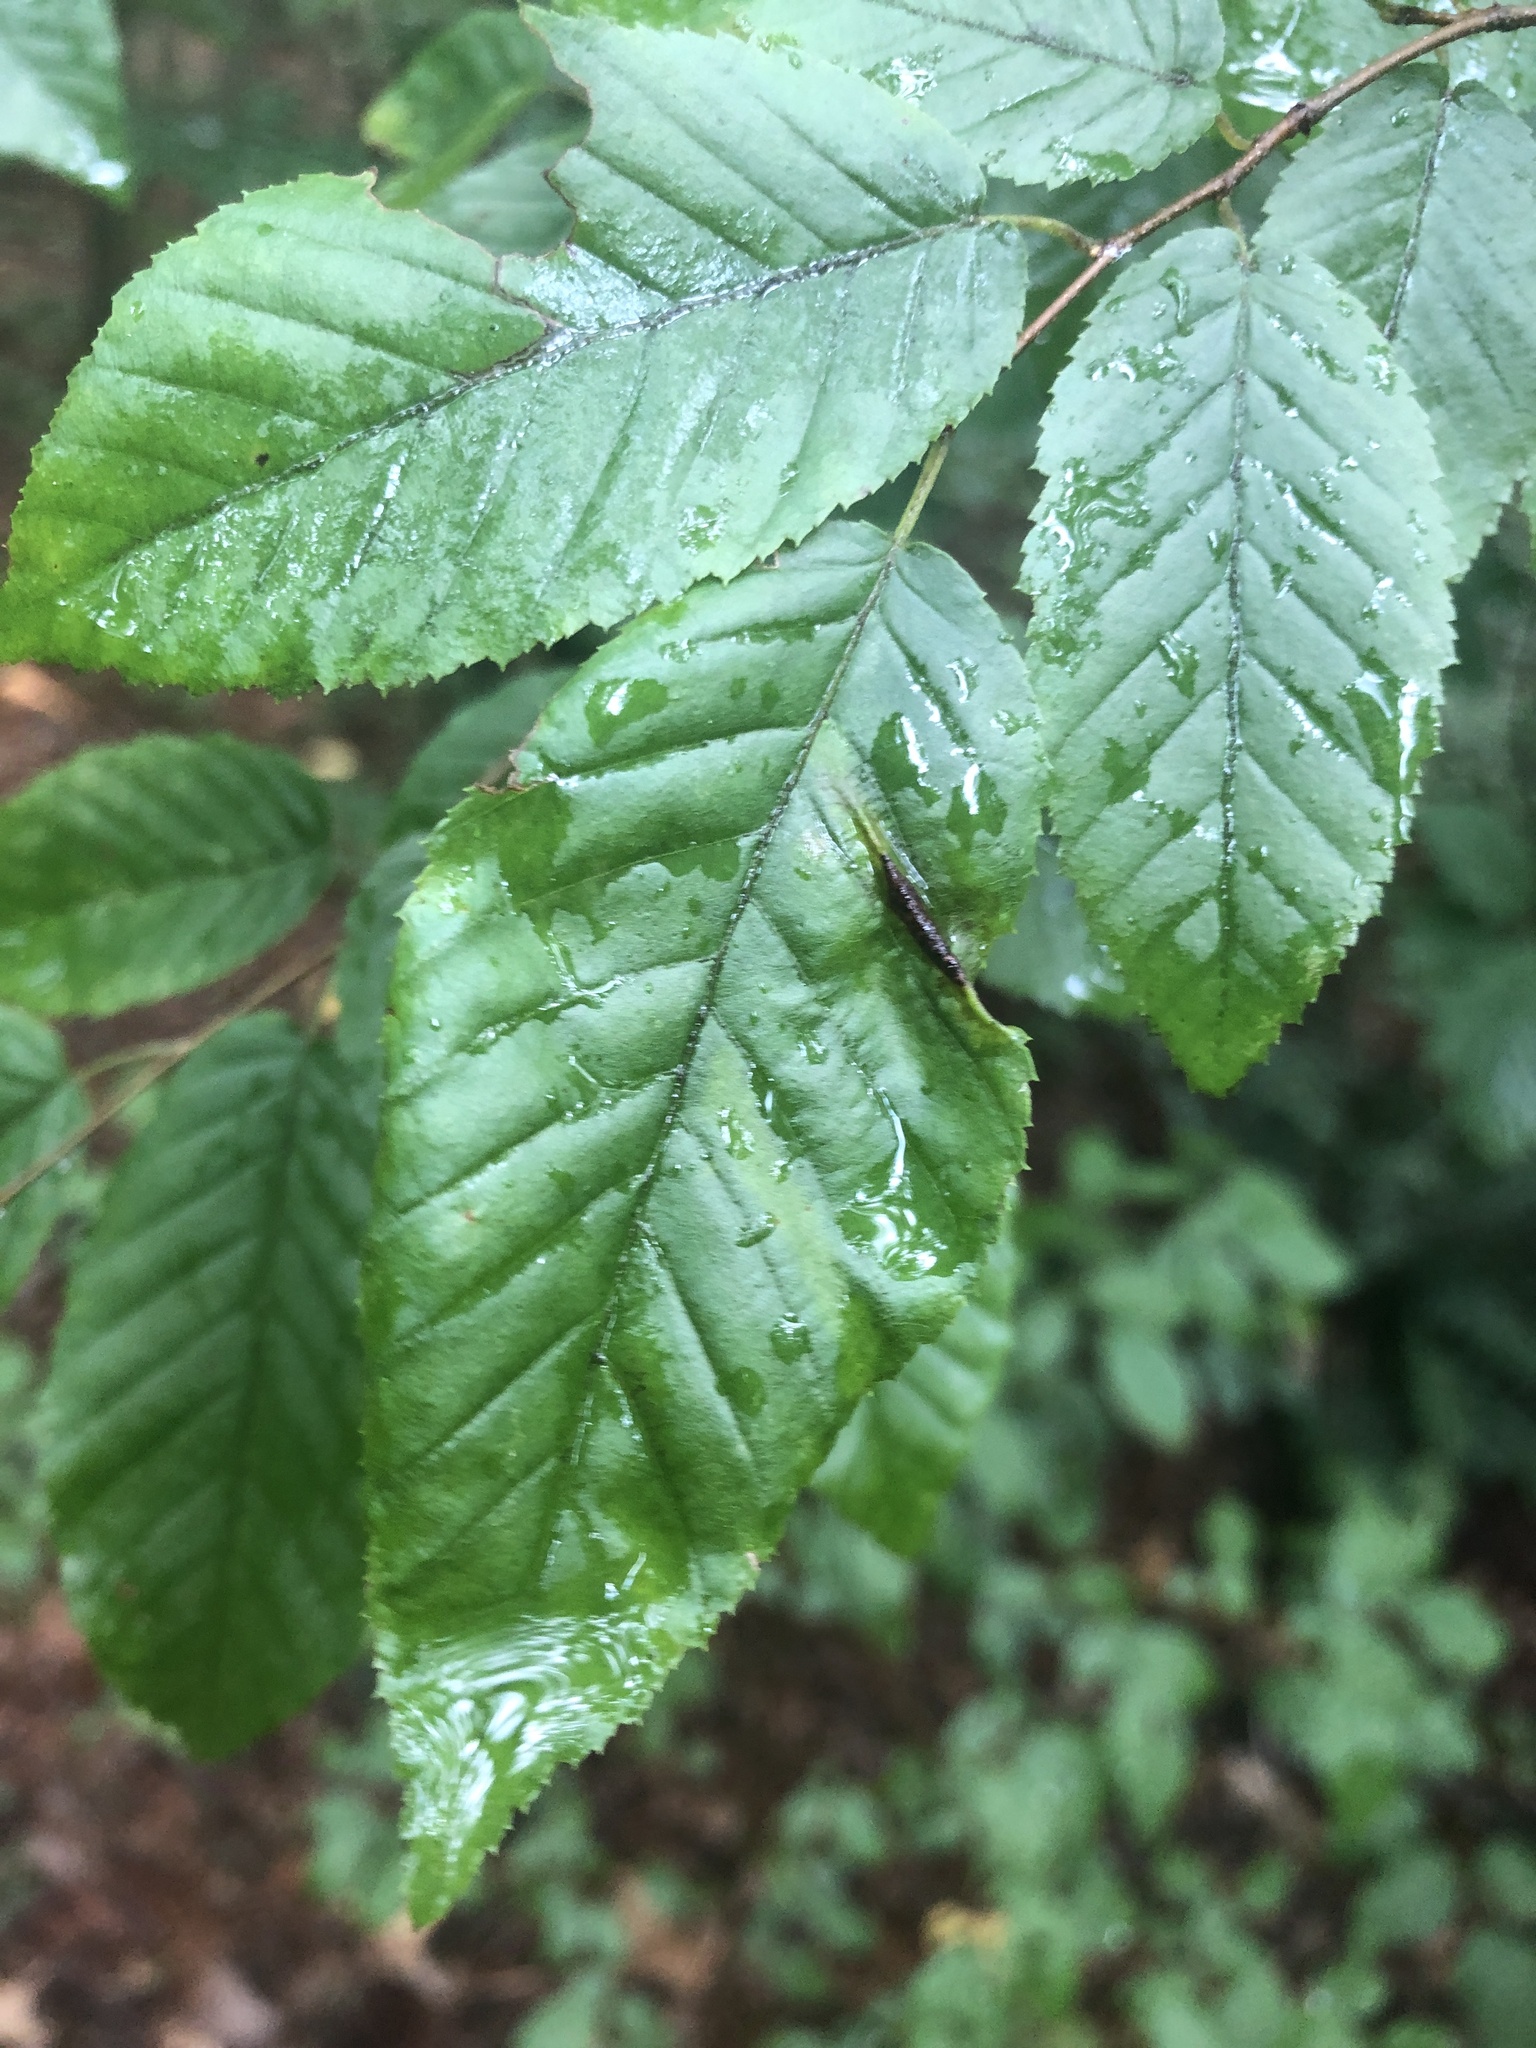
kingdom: Animalia
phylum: Arthropoda
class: Insecta
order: Diptera
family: Cecidomyiidae
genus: Dasineura
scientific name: Dasineura pudibunda
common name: Hornbeam leaf gall midge
